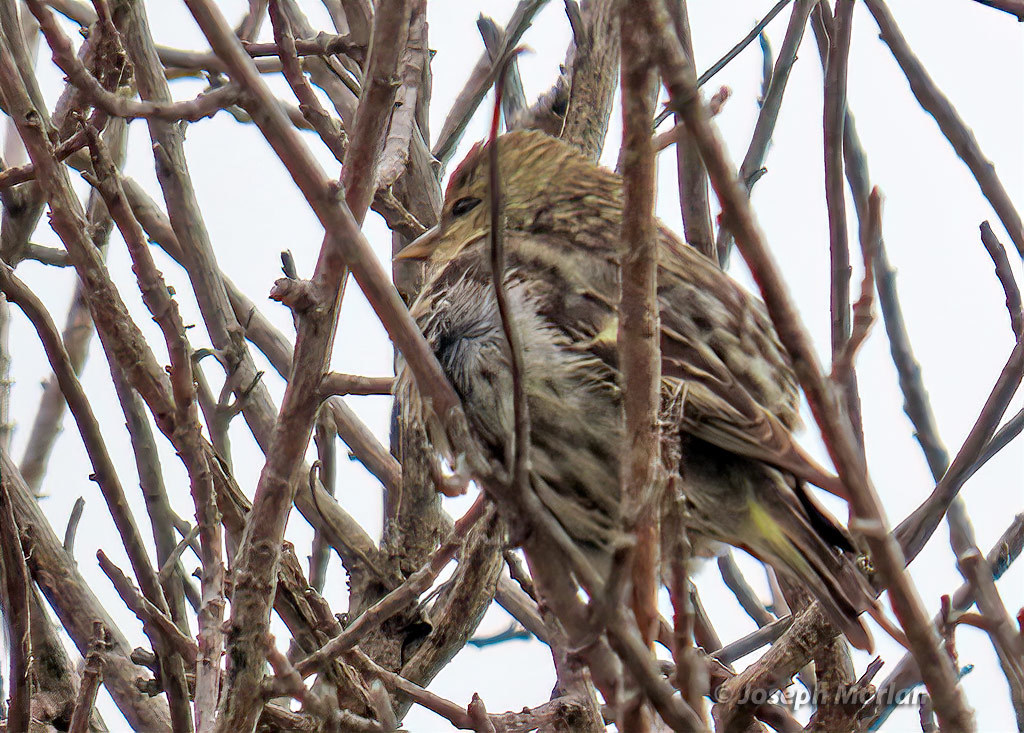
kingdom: Animalia
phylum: Chordata
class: Aves
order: Passeriformes
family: Fringillidae
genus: Spinus
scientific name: Spinus pinus
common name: Pine siskin
